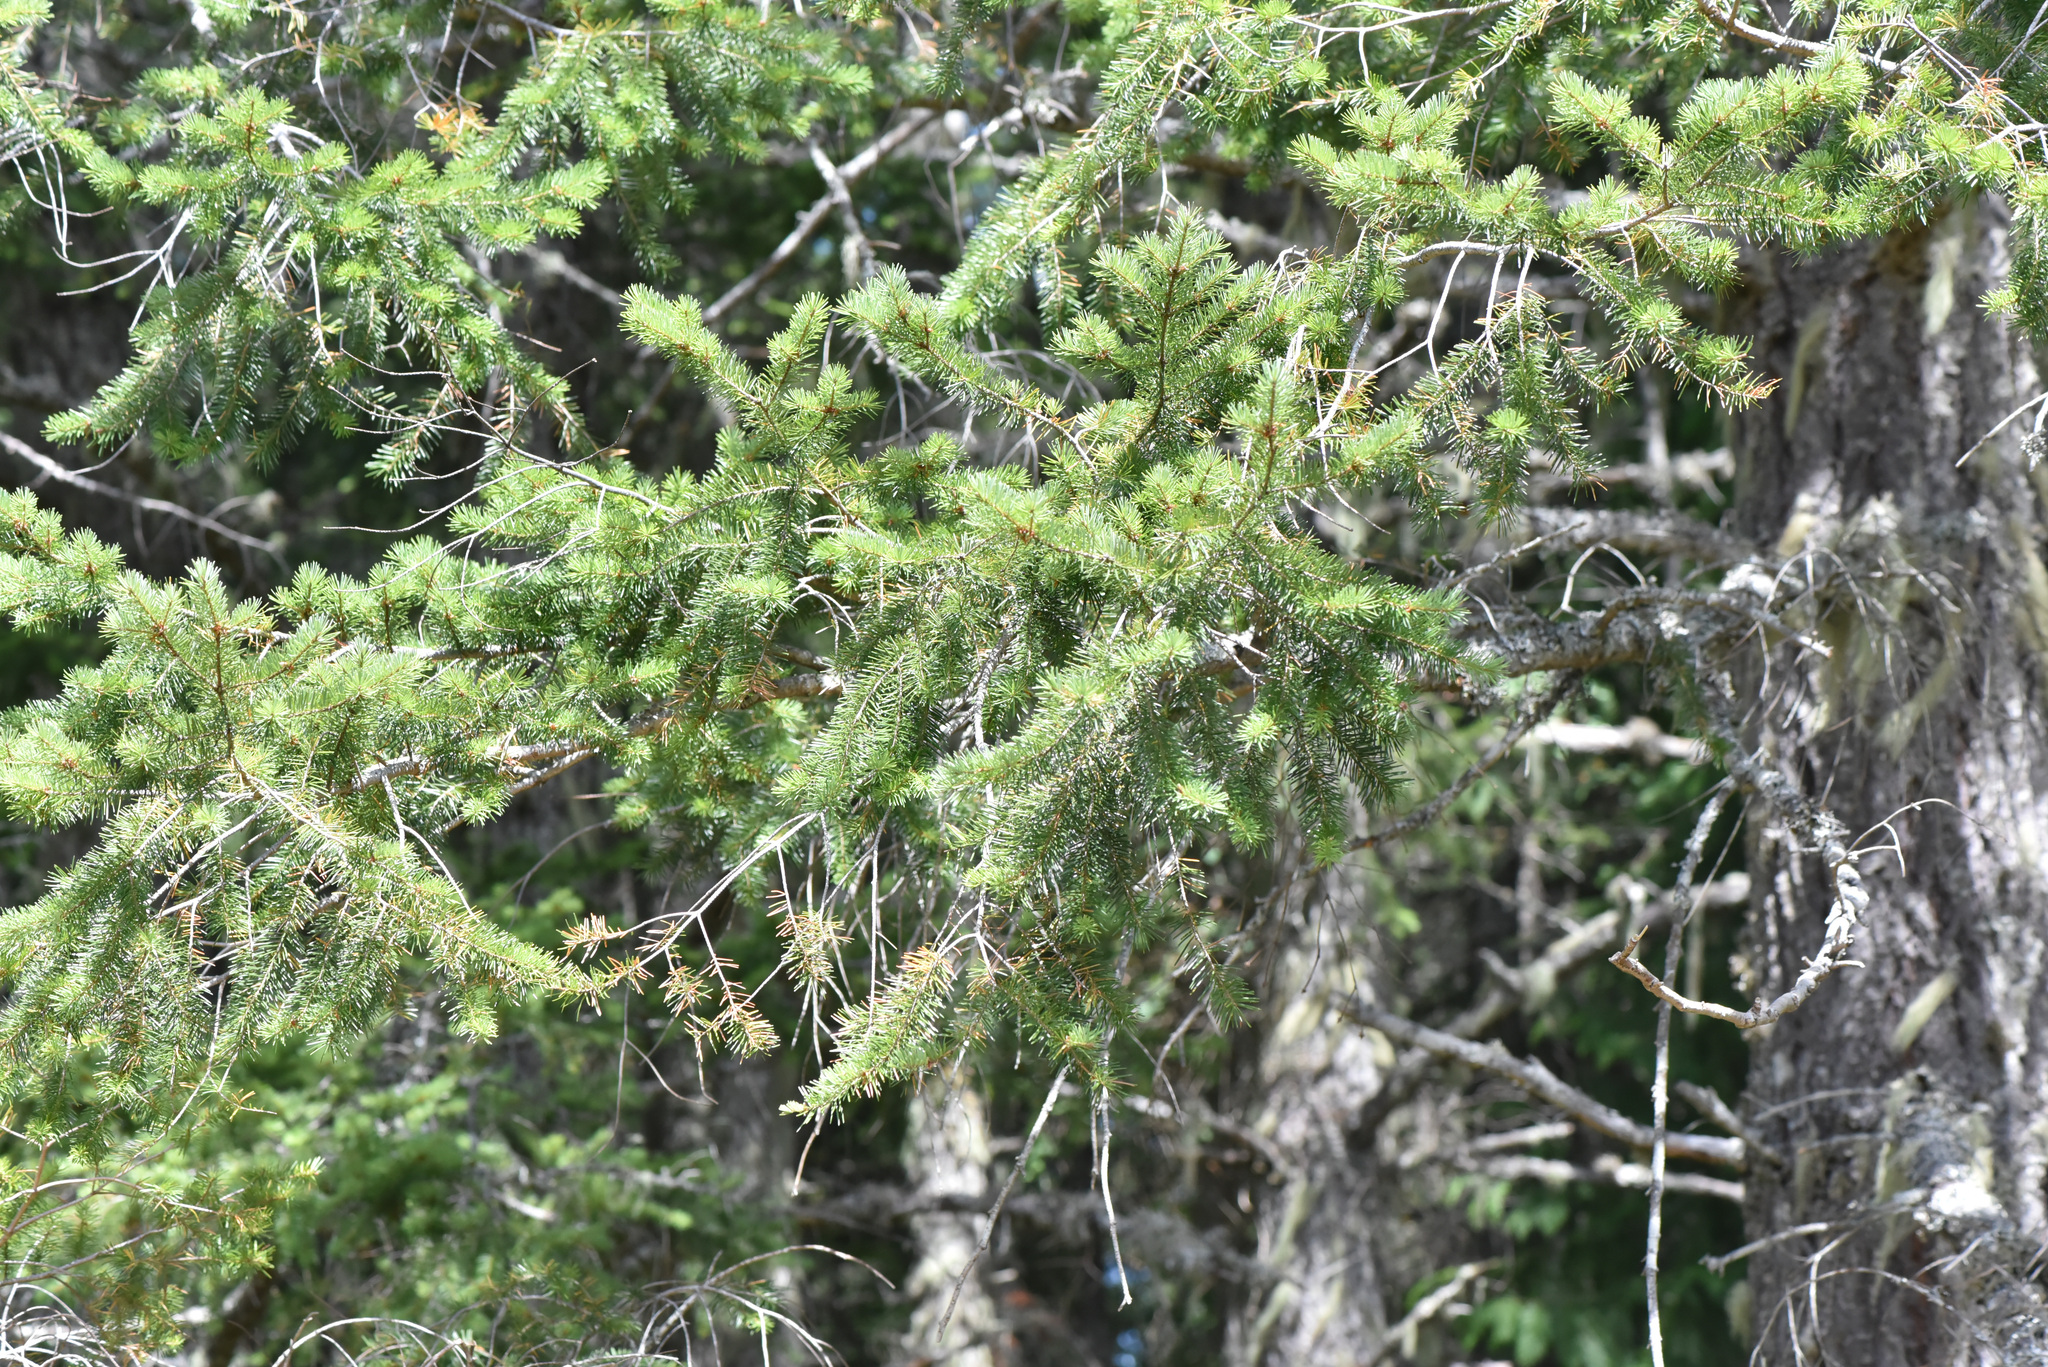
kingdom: Plantae
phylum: Tracheophyta
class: Pinopsida
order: Pinales
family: Pinaceae
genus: Pseudotsuga
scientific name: Pseudotsuga menziesii
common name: Douglas fir
